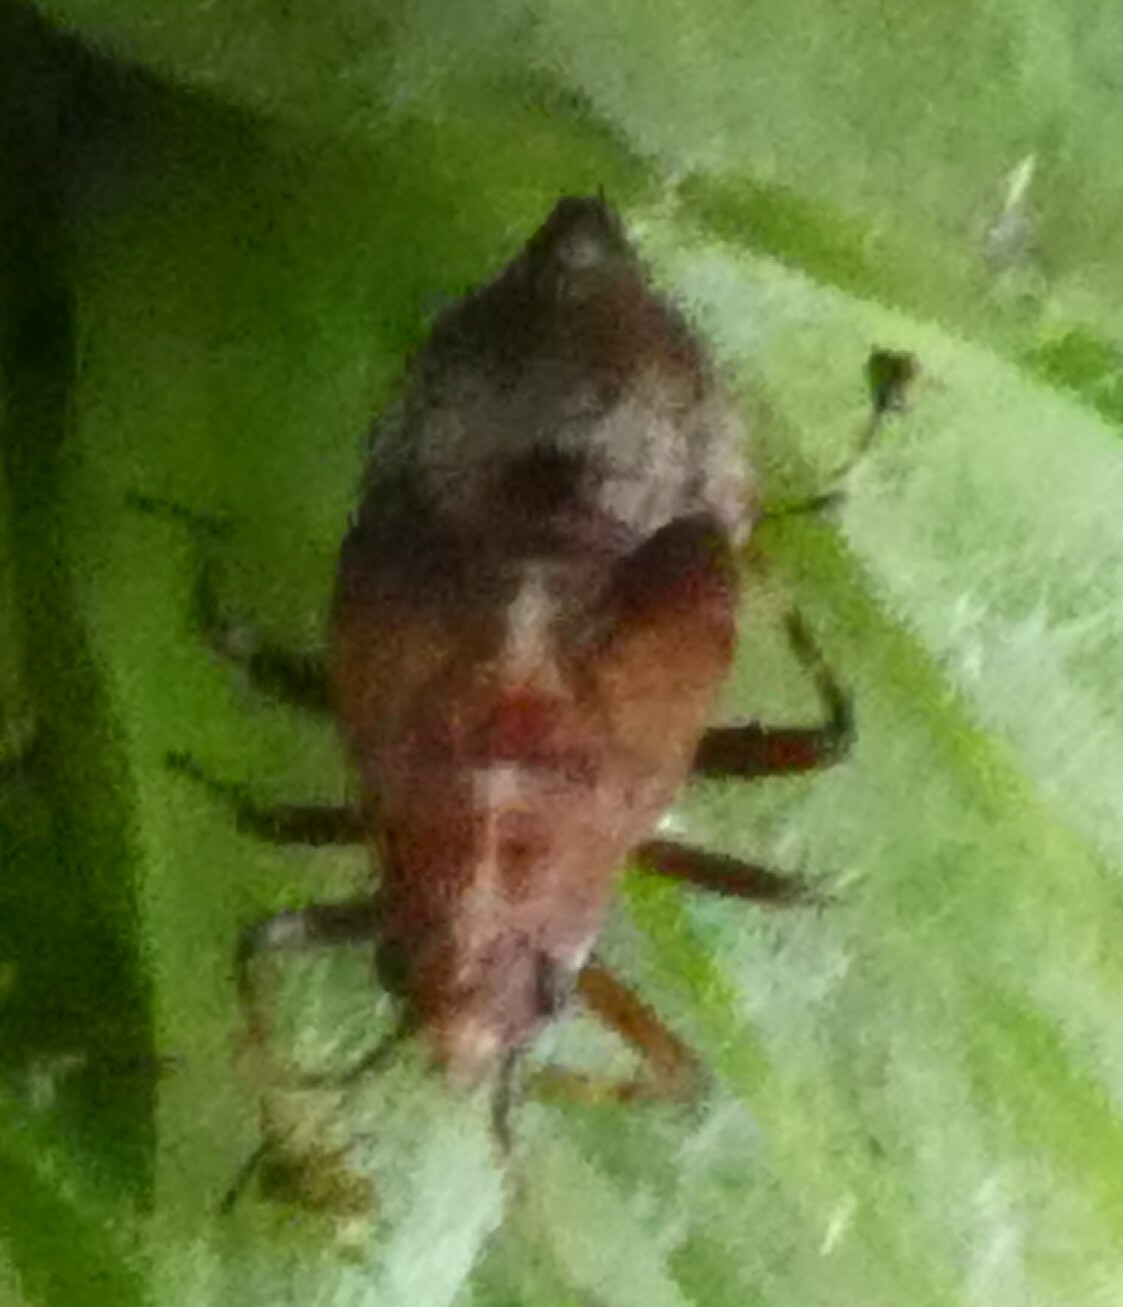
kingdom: Animalia
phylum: Arthropoda
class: Insecta
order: Hemiptera
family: Miridae
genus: Deraeocoris
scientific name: Deraeocoris flavilinea
